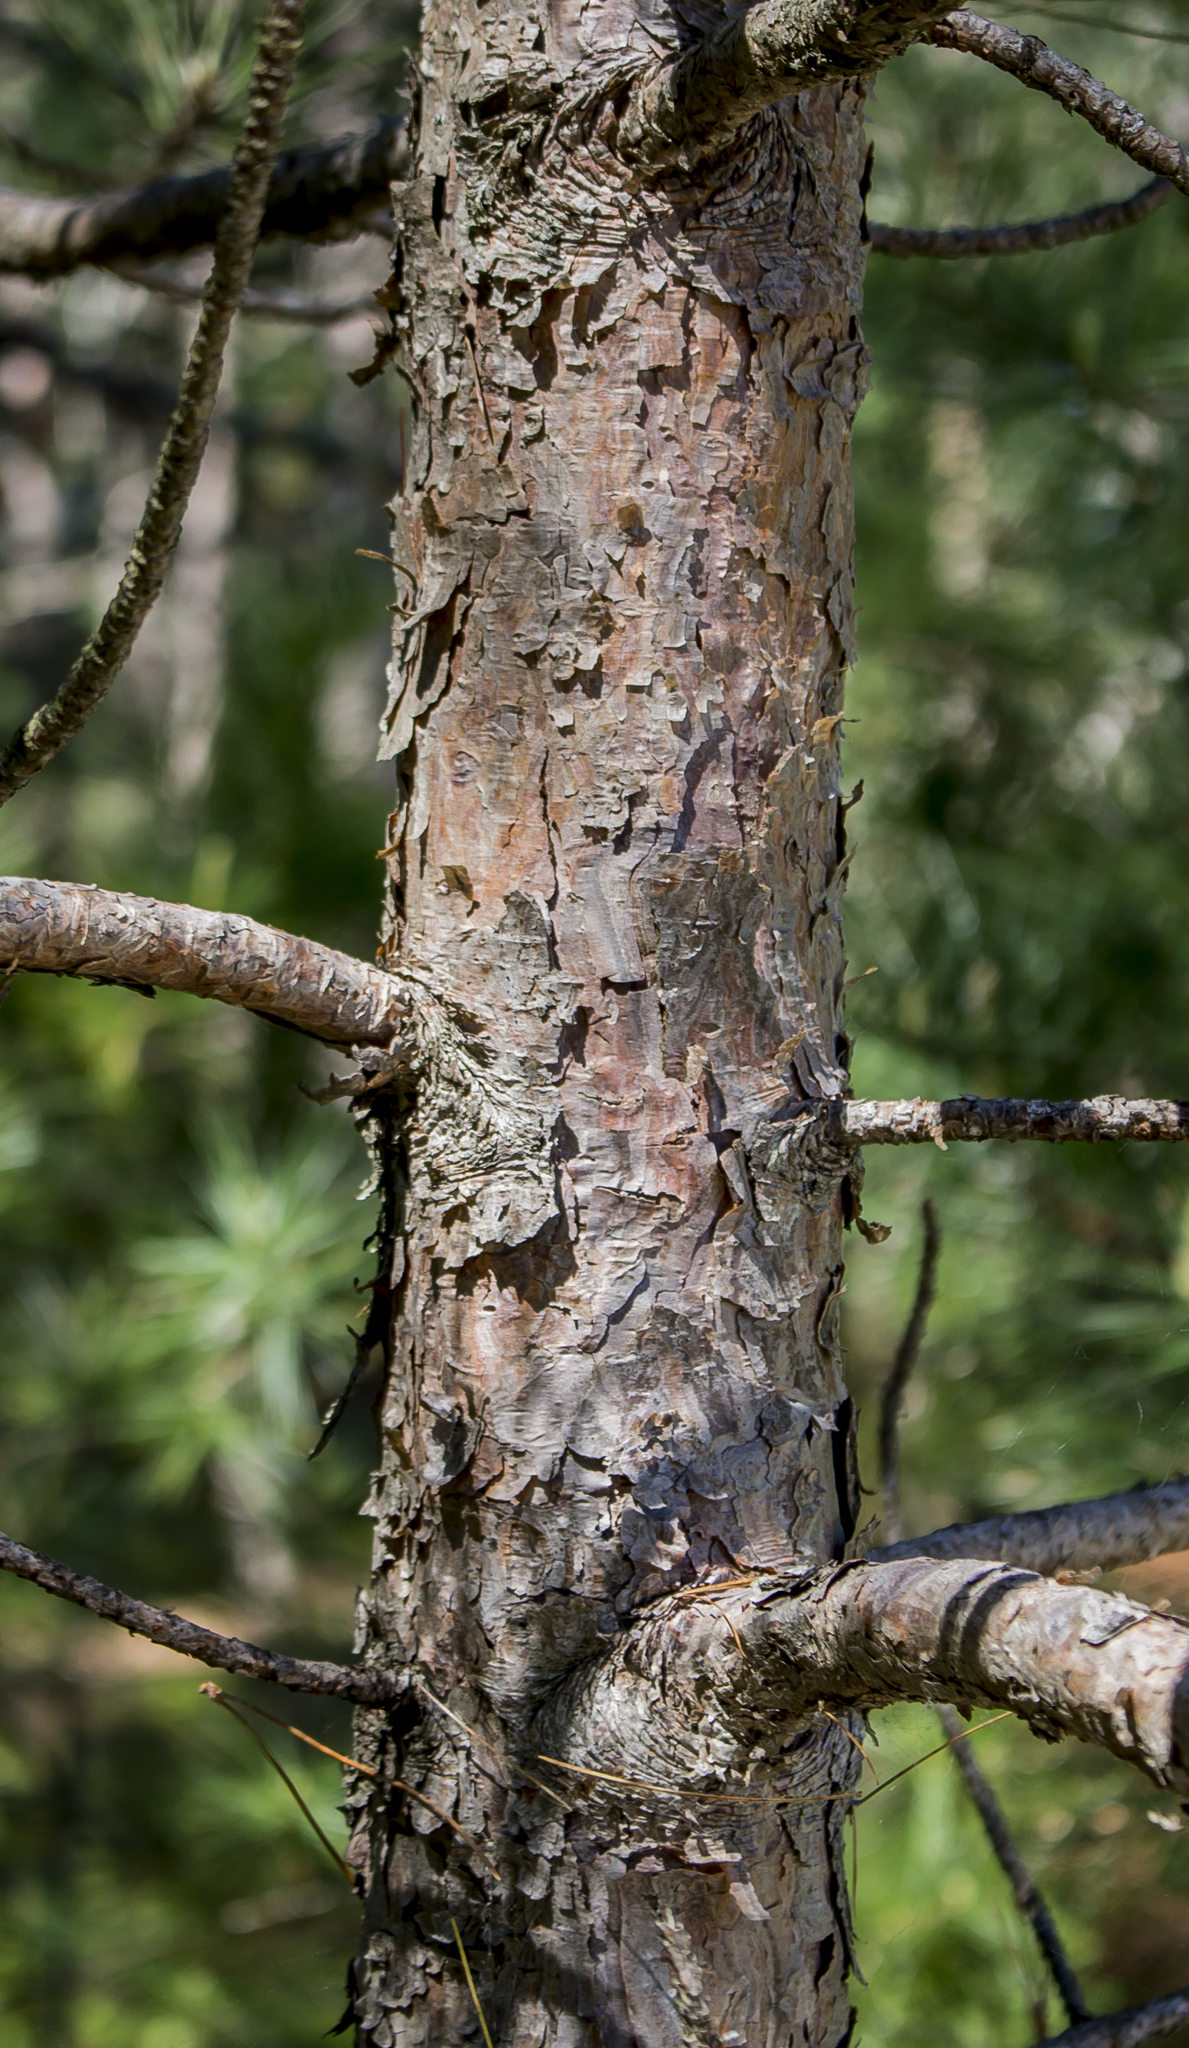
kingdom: Plantae
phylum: Tracheophyta
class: Pinopsida
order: Pinales
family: Pinaceae
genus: Pinus
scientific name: Pinus resinosa
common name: Norway pine
